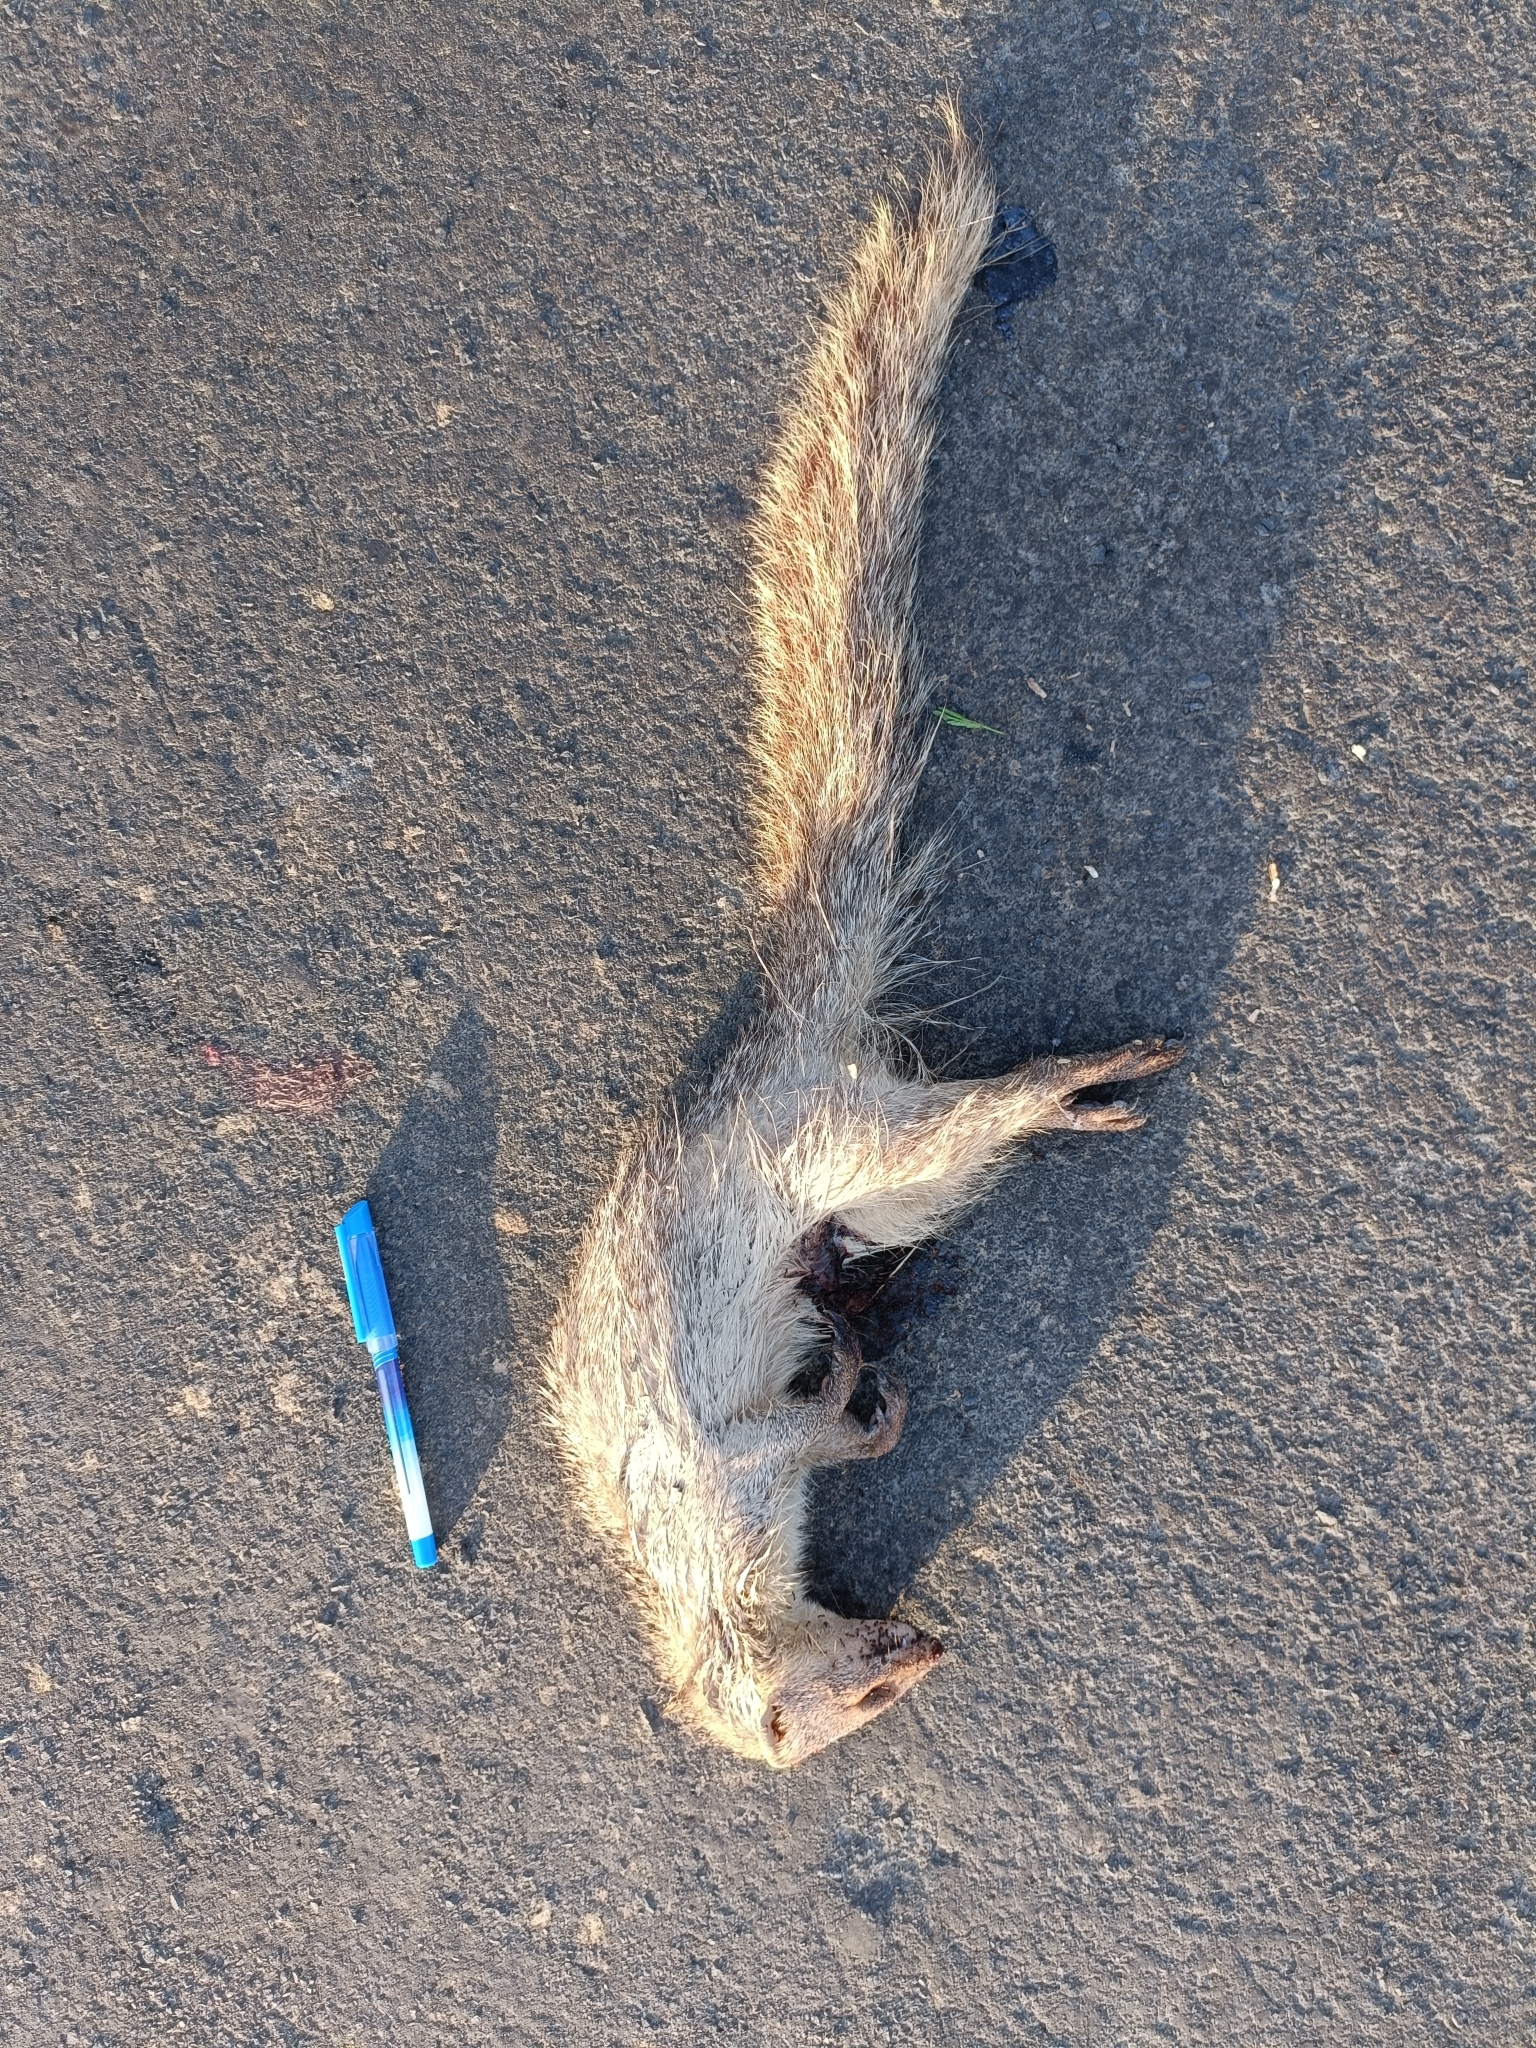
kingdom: Animalia
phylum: Chordata
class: Mammalia
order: Carnivora
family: Herpestidae
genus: Herpestes
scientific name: Herpestes edwardsi
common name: Indian gray mongoose
